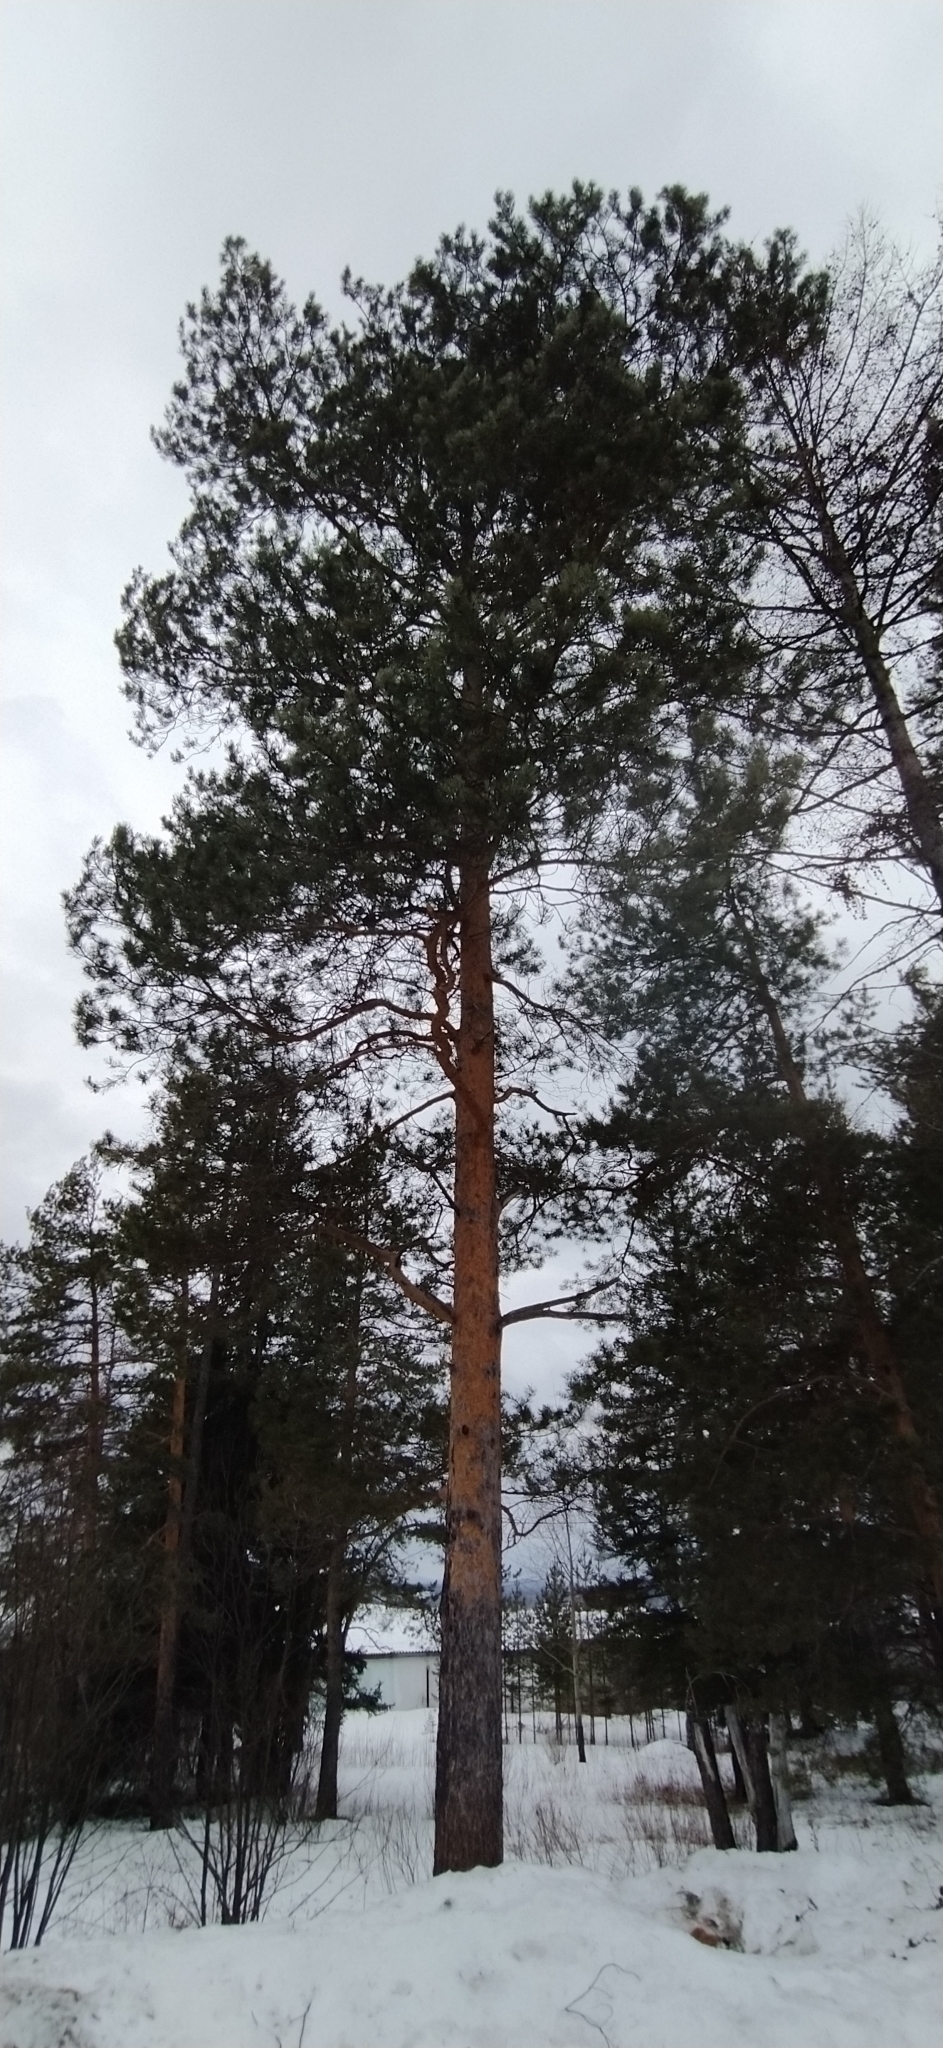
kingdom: Plantae
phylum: Tracheophyta
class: Pinopsida
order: Pinales
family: Pinaceae
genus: Pinus
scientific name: Pinus sylvestris
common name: Scots pine
